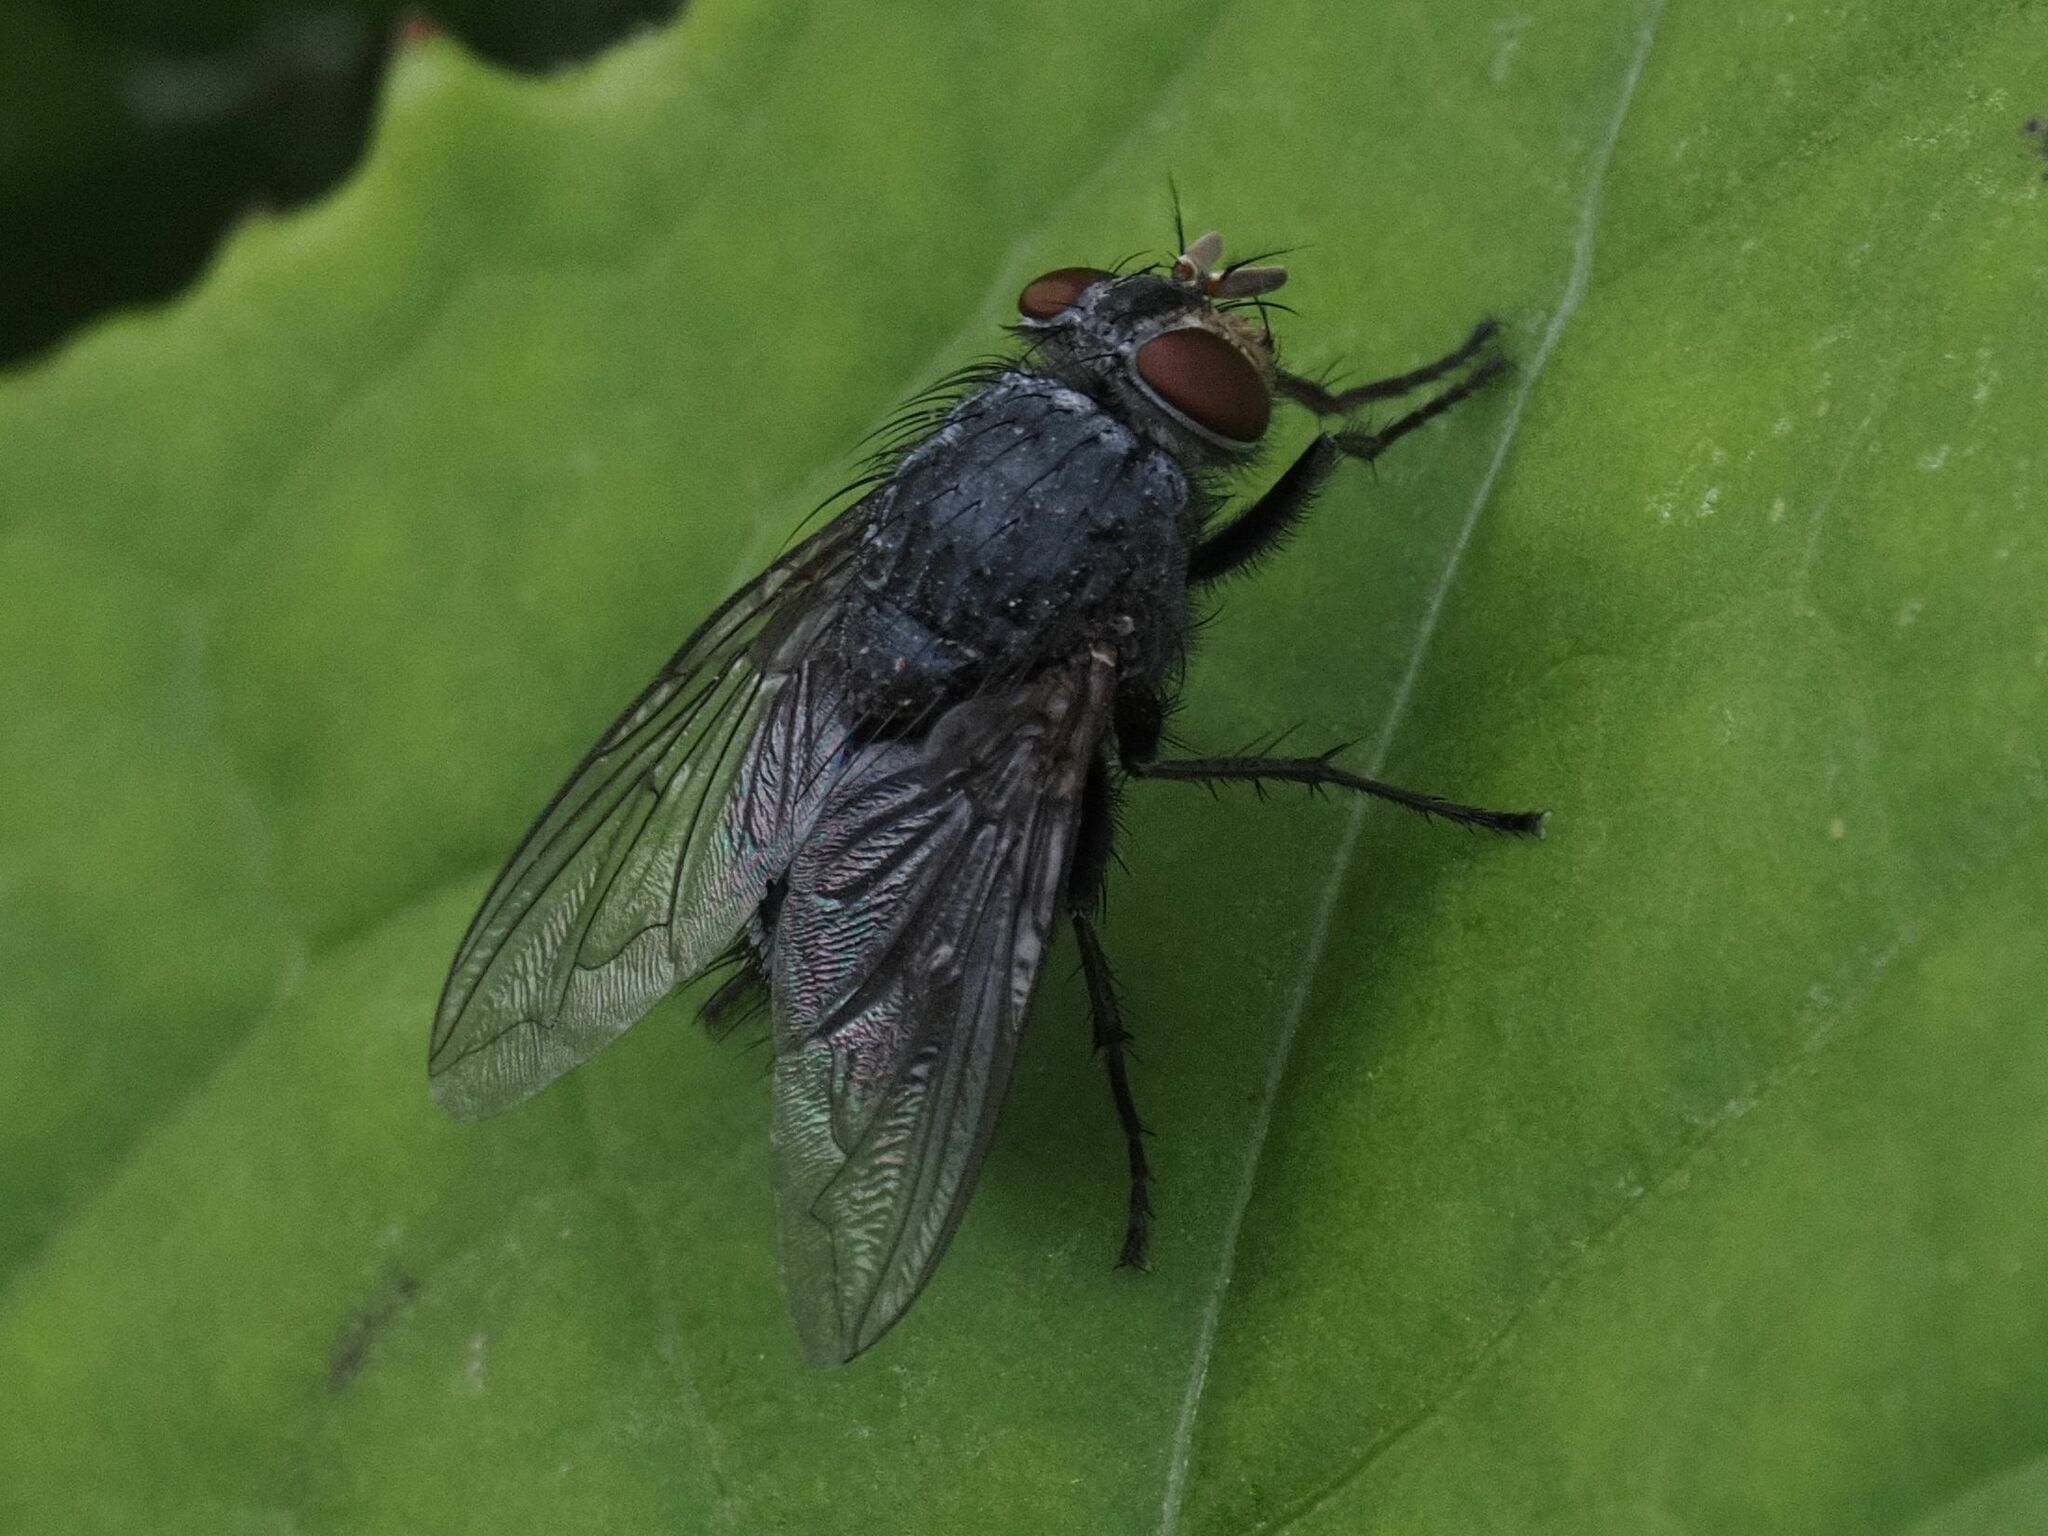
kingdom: Animalia
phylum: Arthropoda
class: Insecta
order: Diptera
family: Calliphoridae
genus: Calliphora
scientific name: Calliphora vicina
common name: Common blow flie
